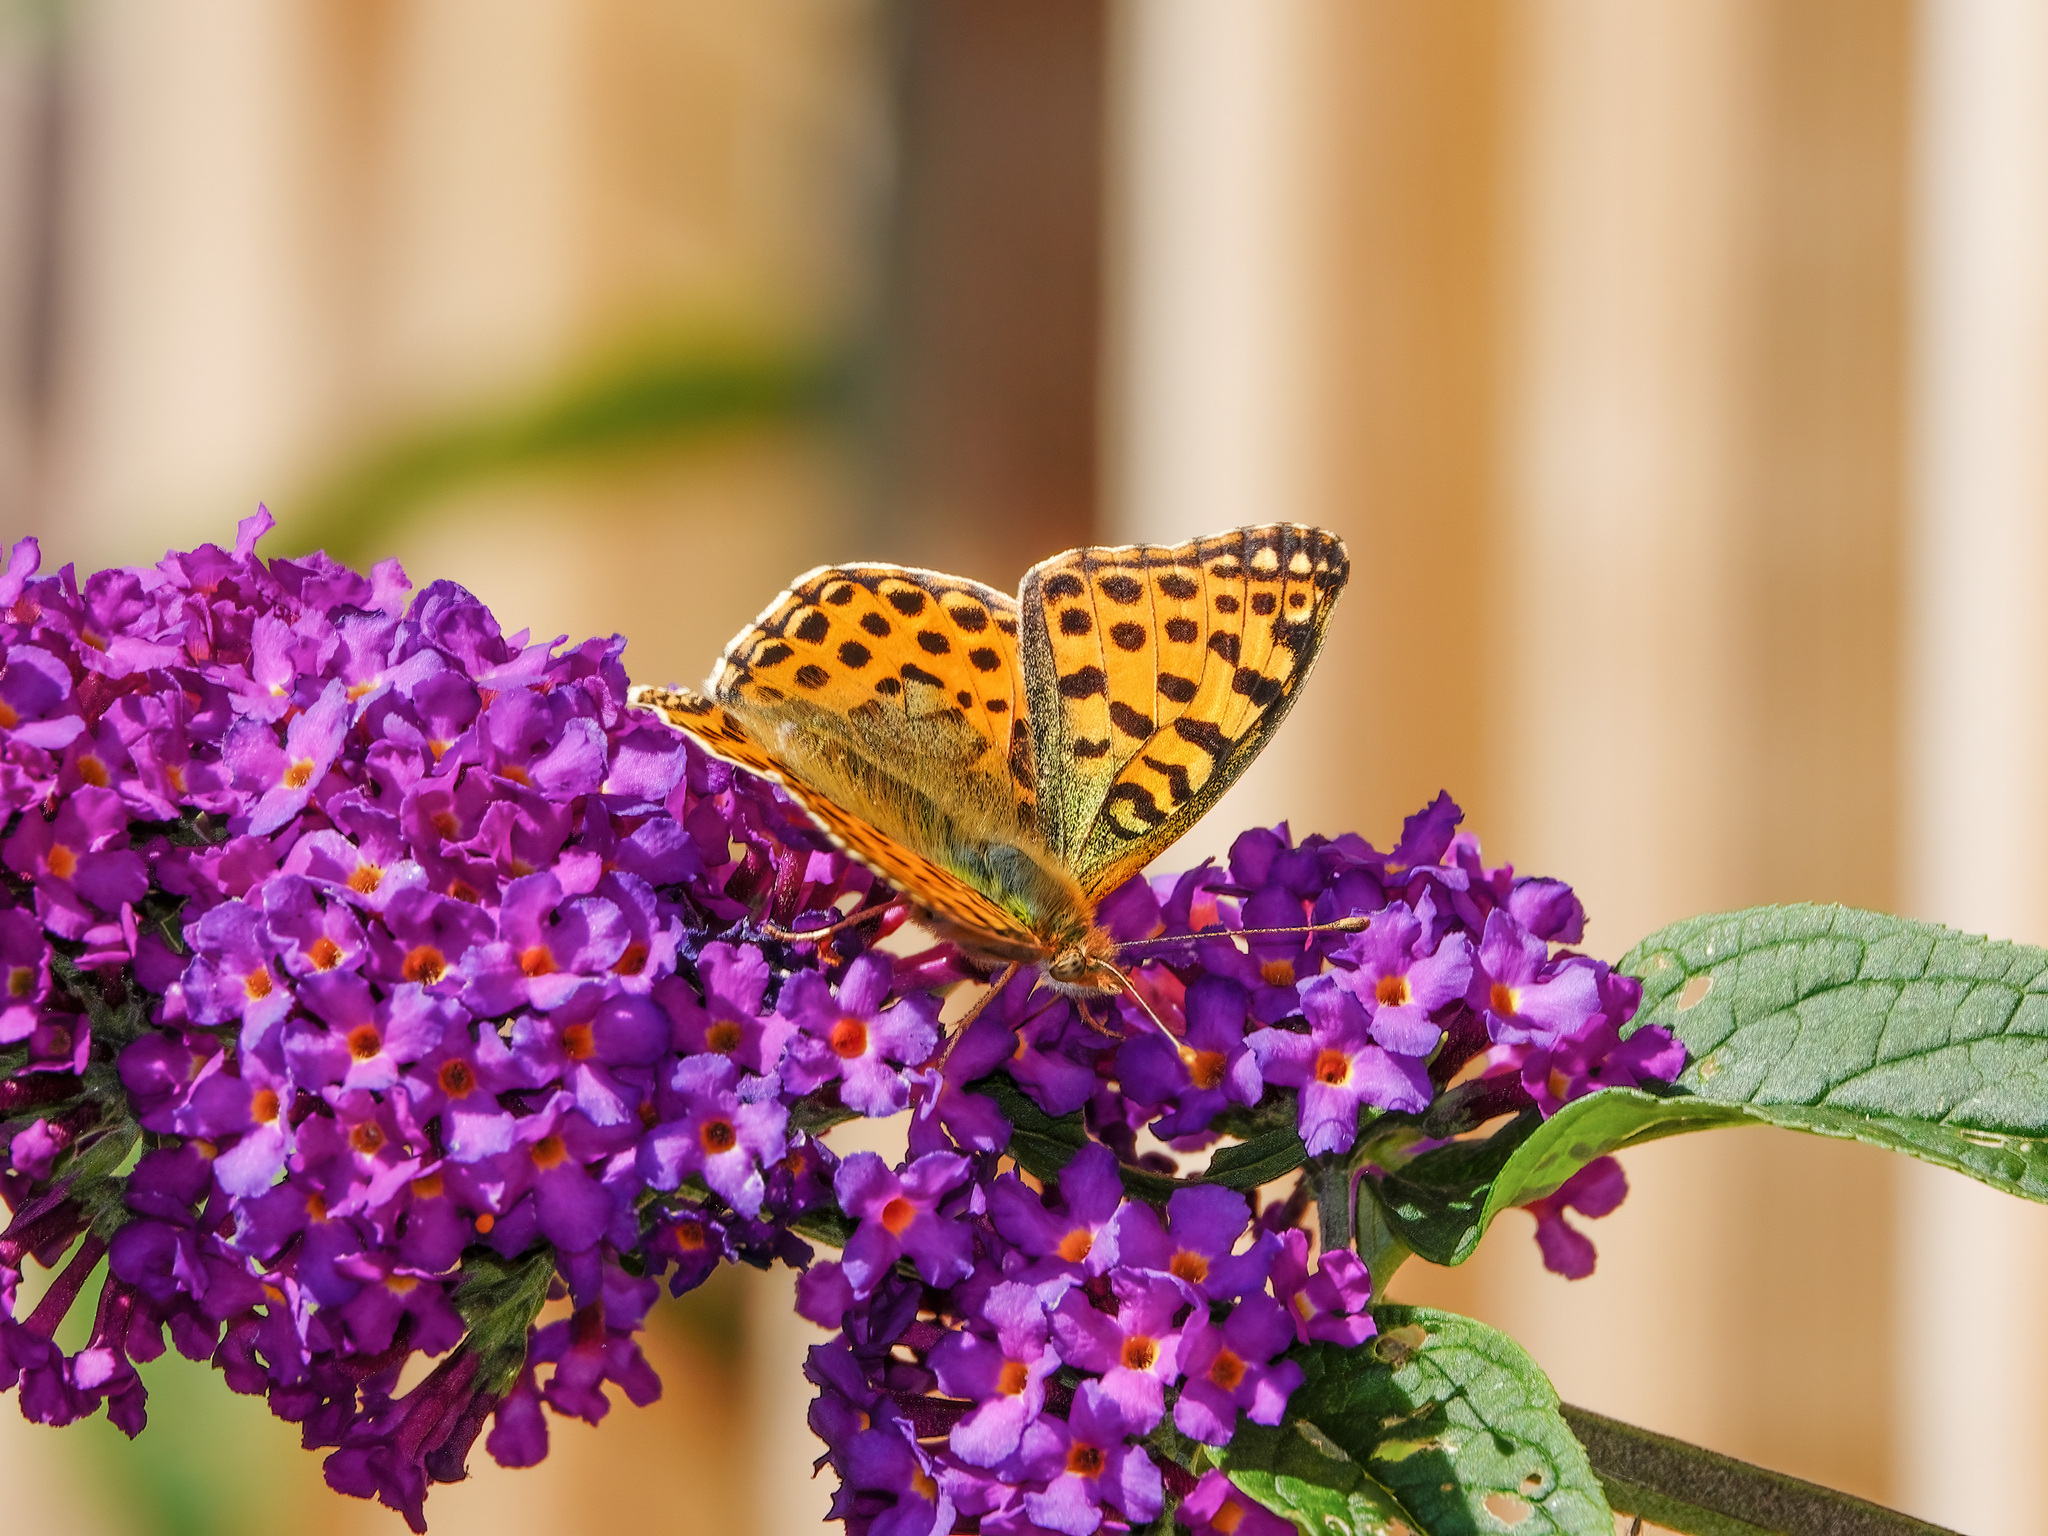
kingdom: Animalia
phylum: Arthropoda
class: Insecta
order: Lepidoptera
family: Nymphalidae
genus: Issoria
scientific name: Issoria lathonia
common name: Queen of spain fritillary
